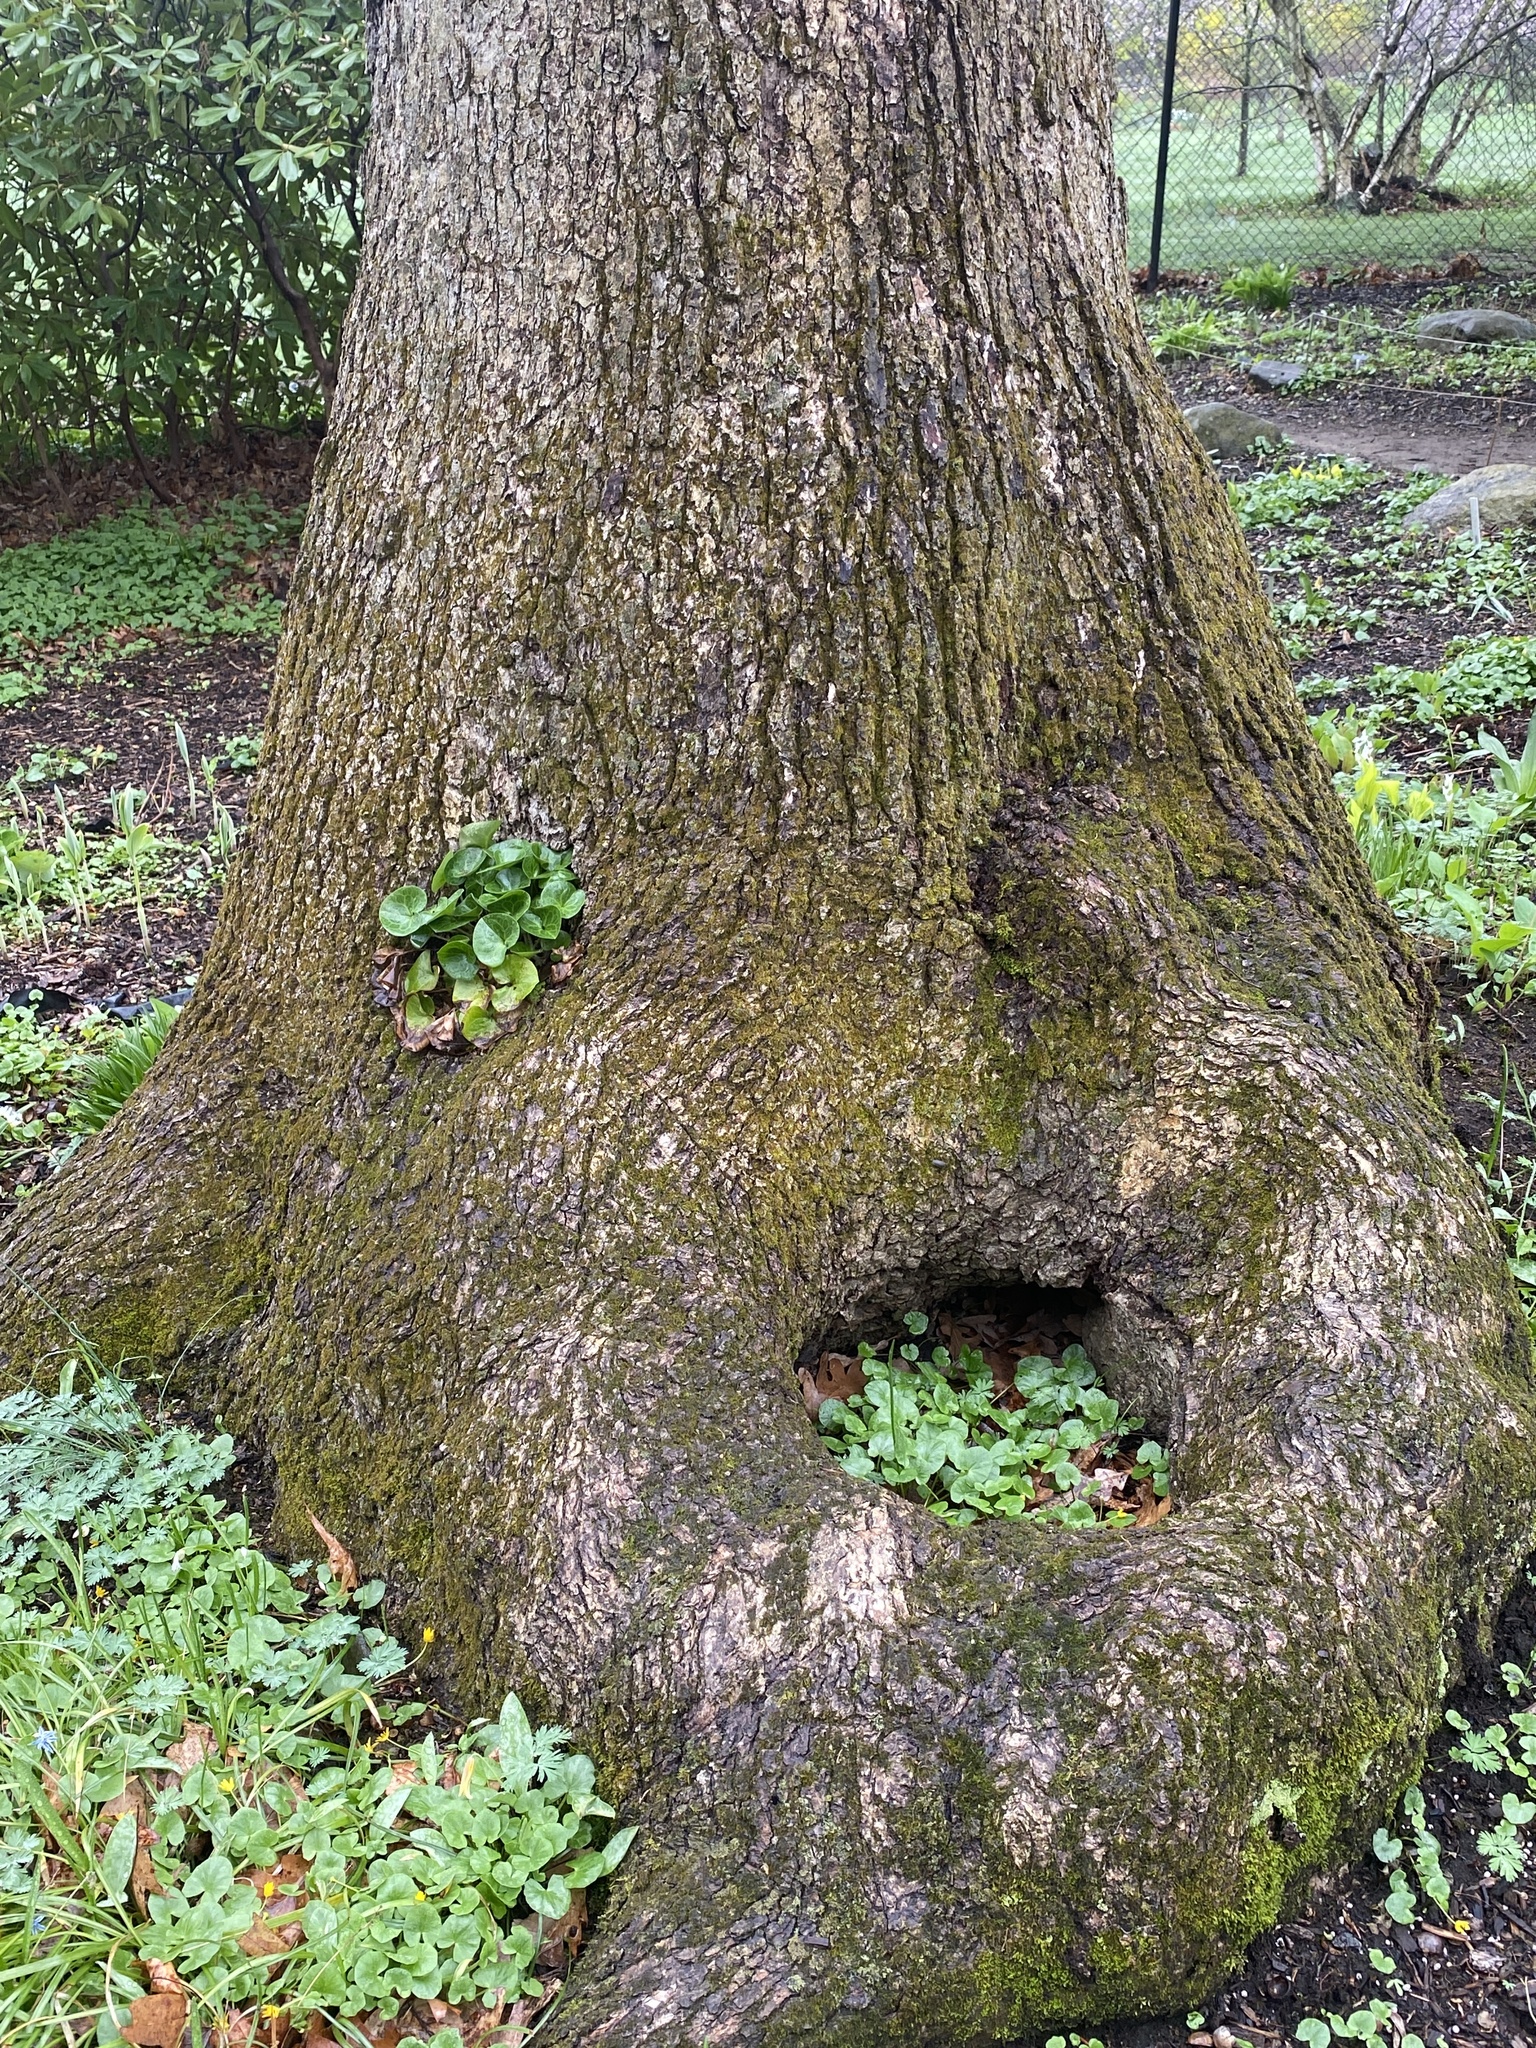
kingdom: Plantae
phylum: Tracheophyta
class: Magnoliopsida
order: Ranunculales
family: Ranunculaceae
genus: Ficaria
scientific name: Ficaria verna
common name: Lesser celandine
